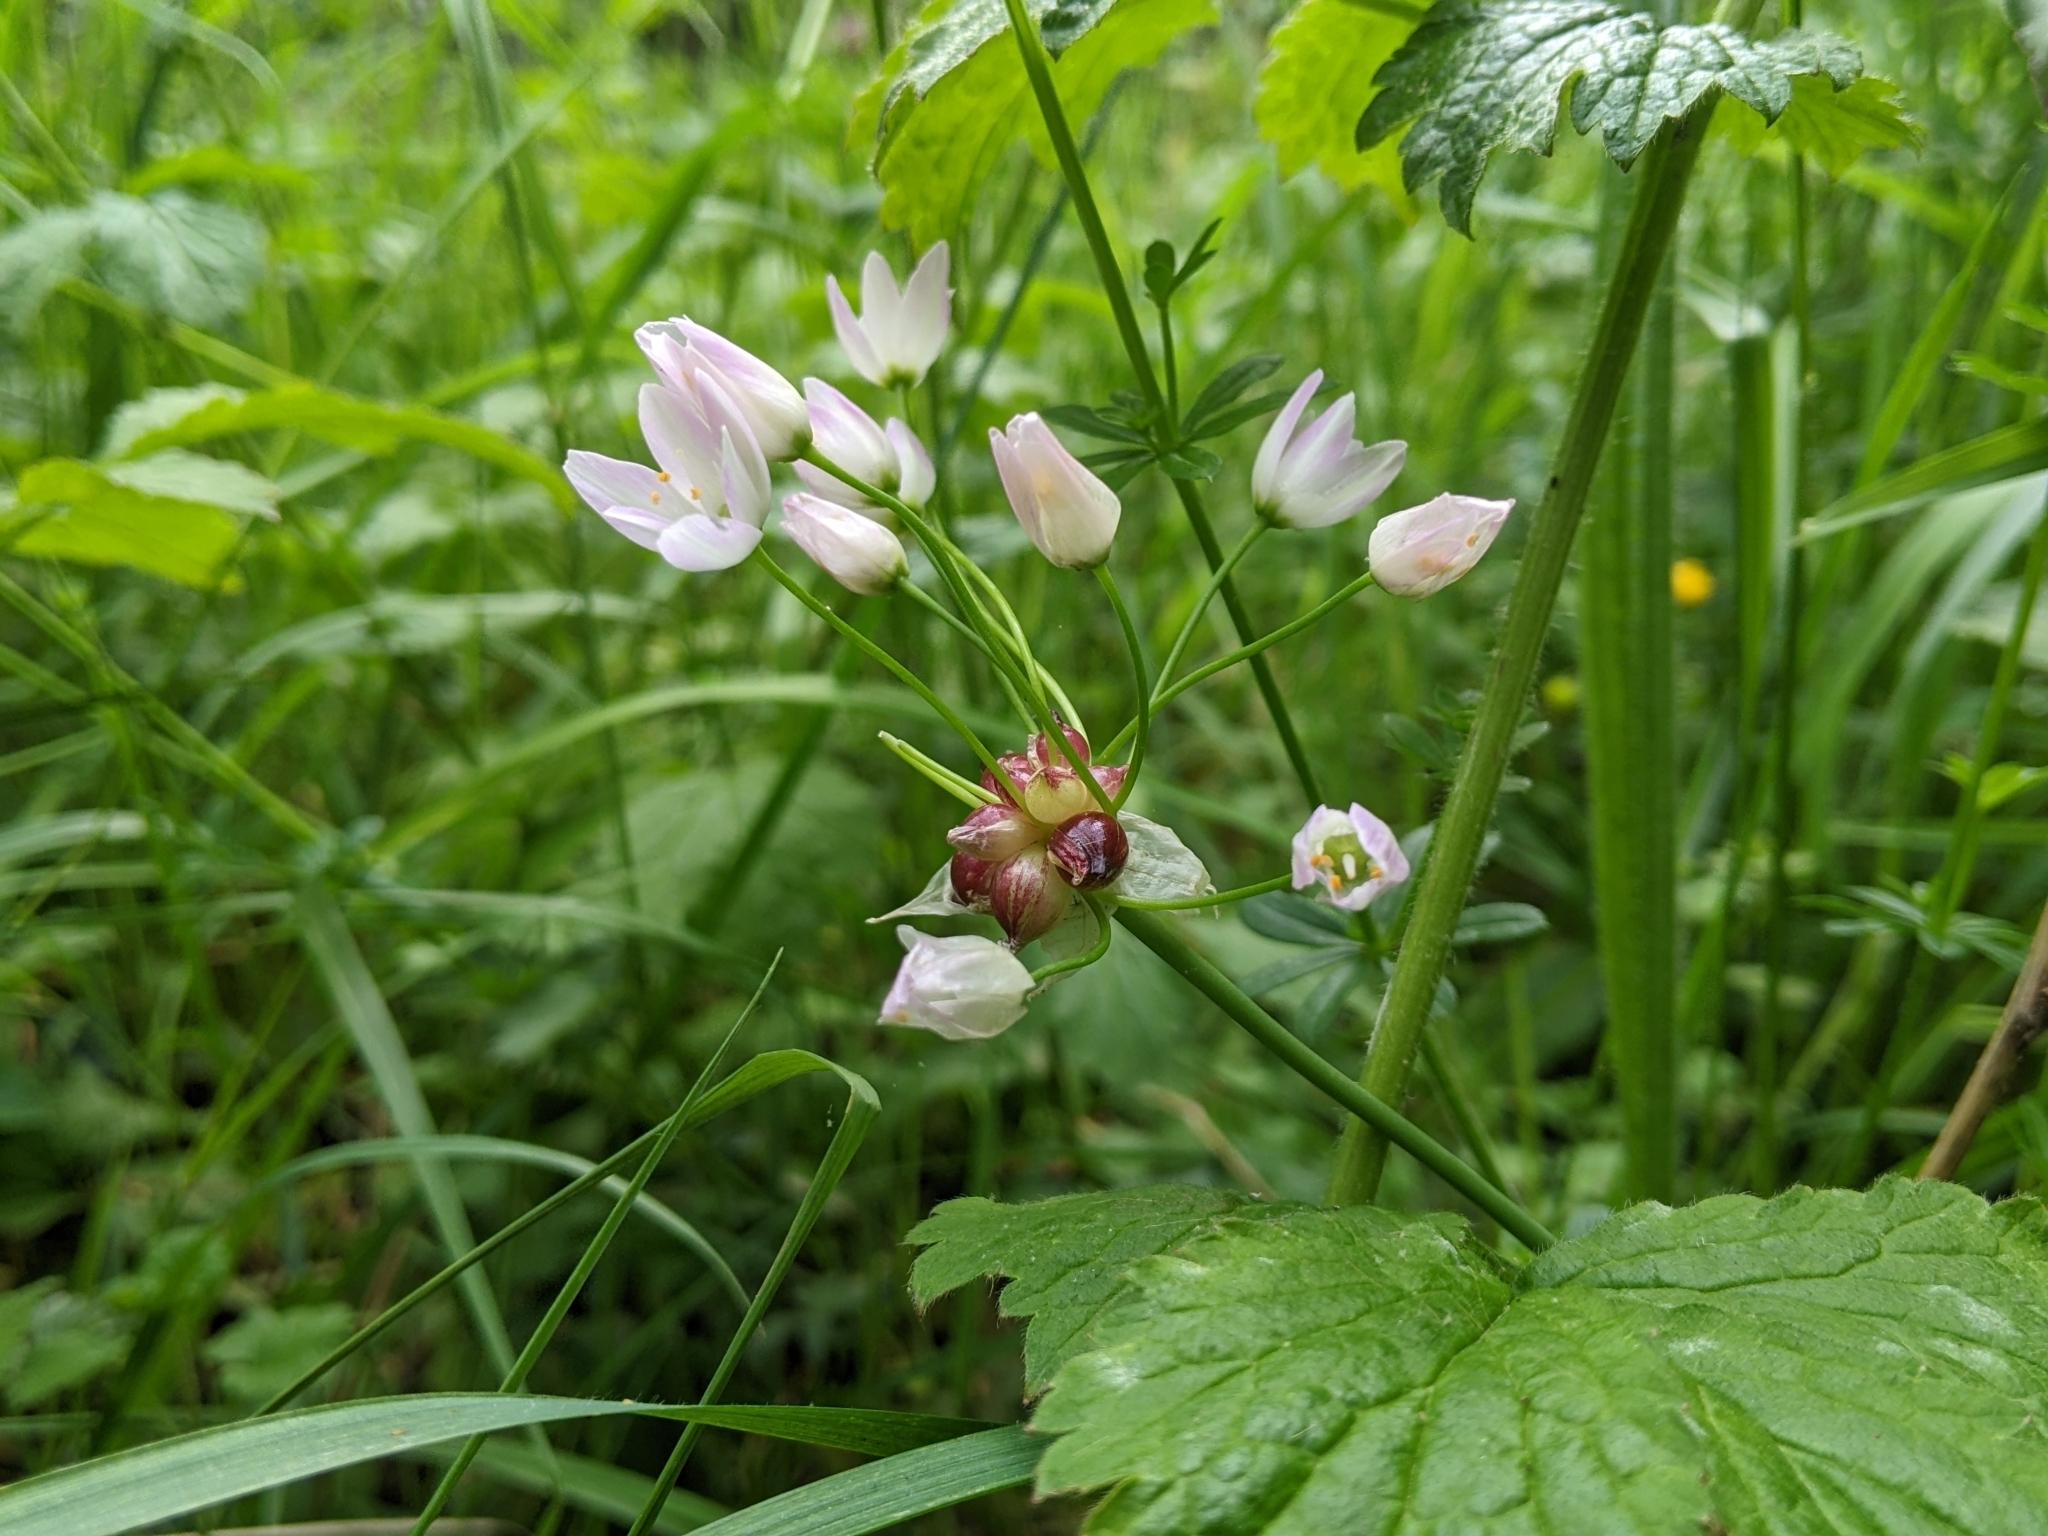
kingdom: Plantae
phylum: Tracheophyta
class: Liliopsida
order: Asparagales
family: Amaryllidaceae
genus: Allium
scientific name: Allium roseum
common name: Rosy garlic
